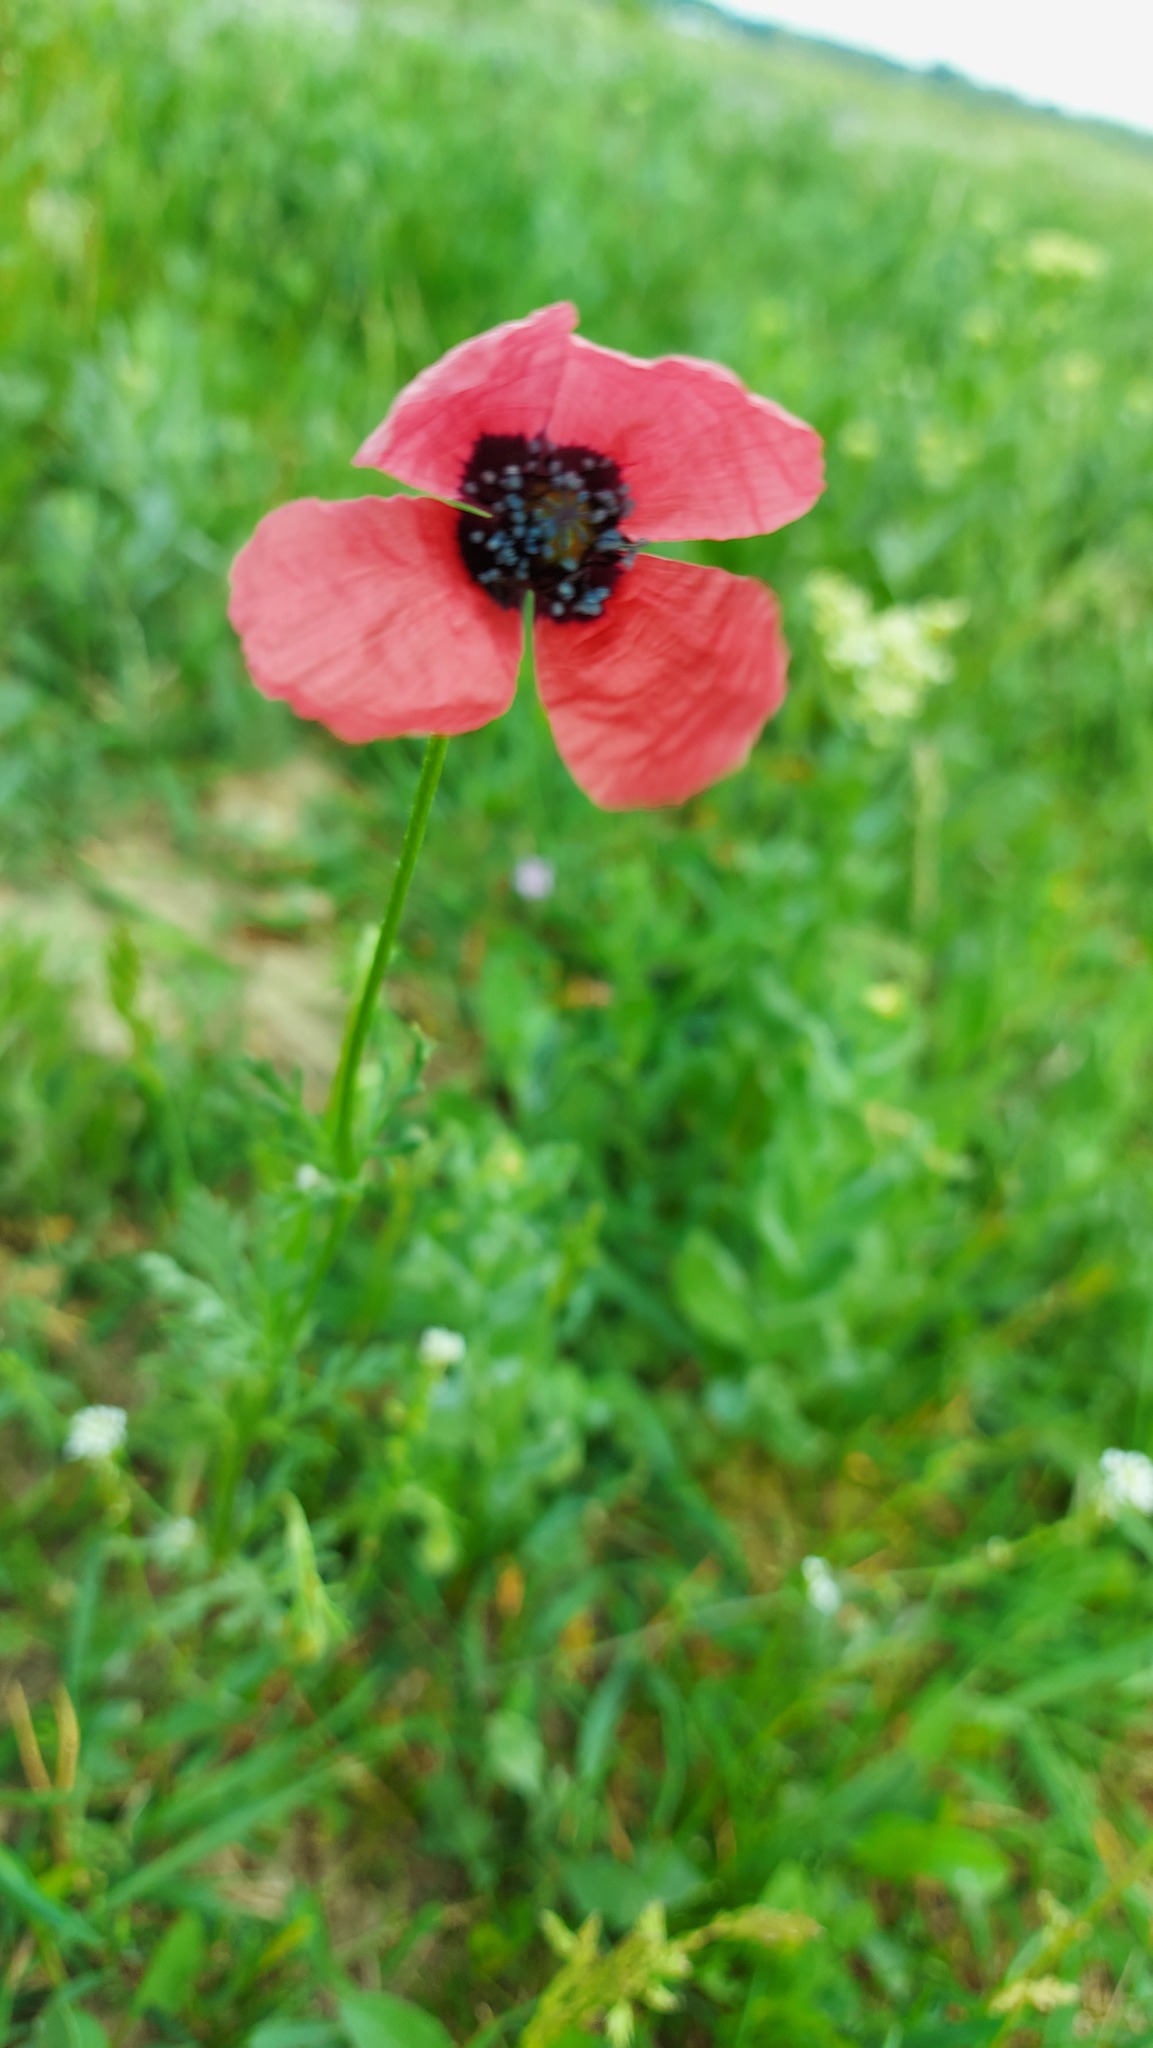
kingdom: Plantae
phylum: Tracheophyta
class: Magnoliopsida
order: Ranunculales
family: Papaveraceae
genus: Papaver
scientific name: Papaver dubium
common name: Long-headed poppy
